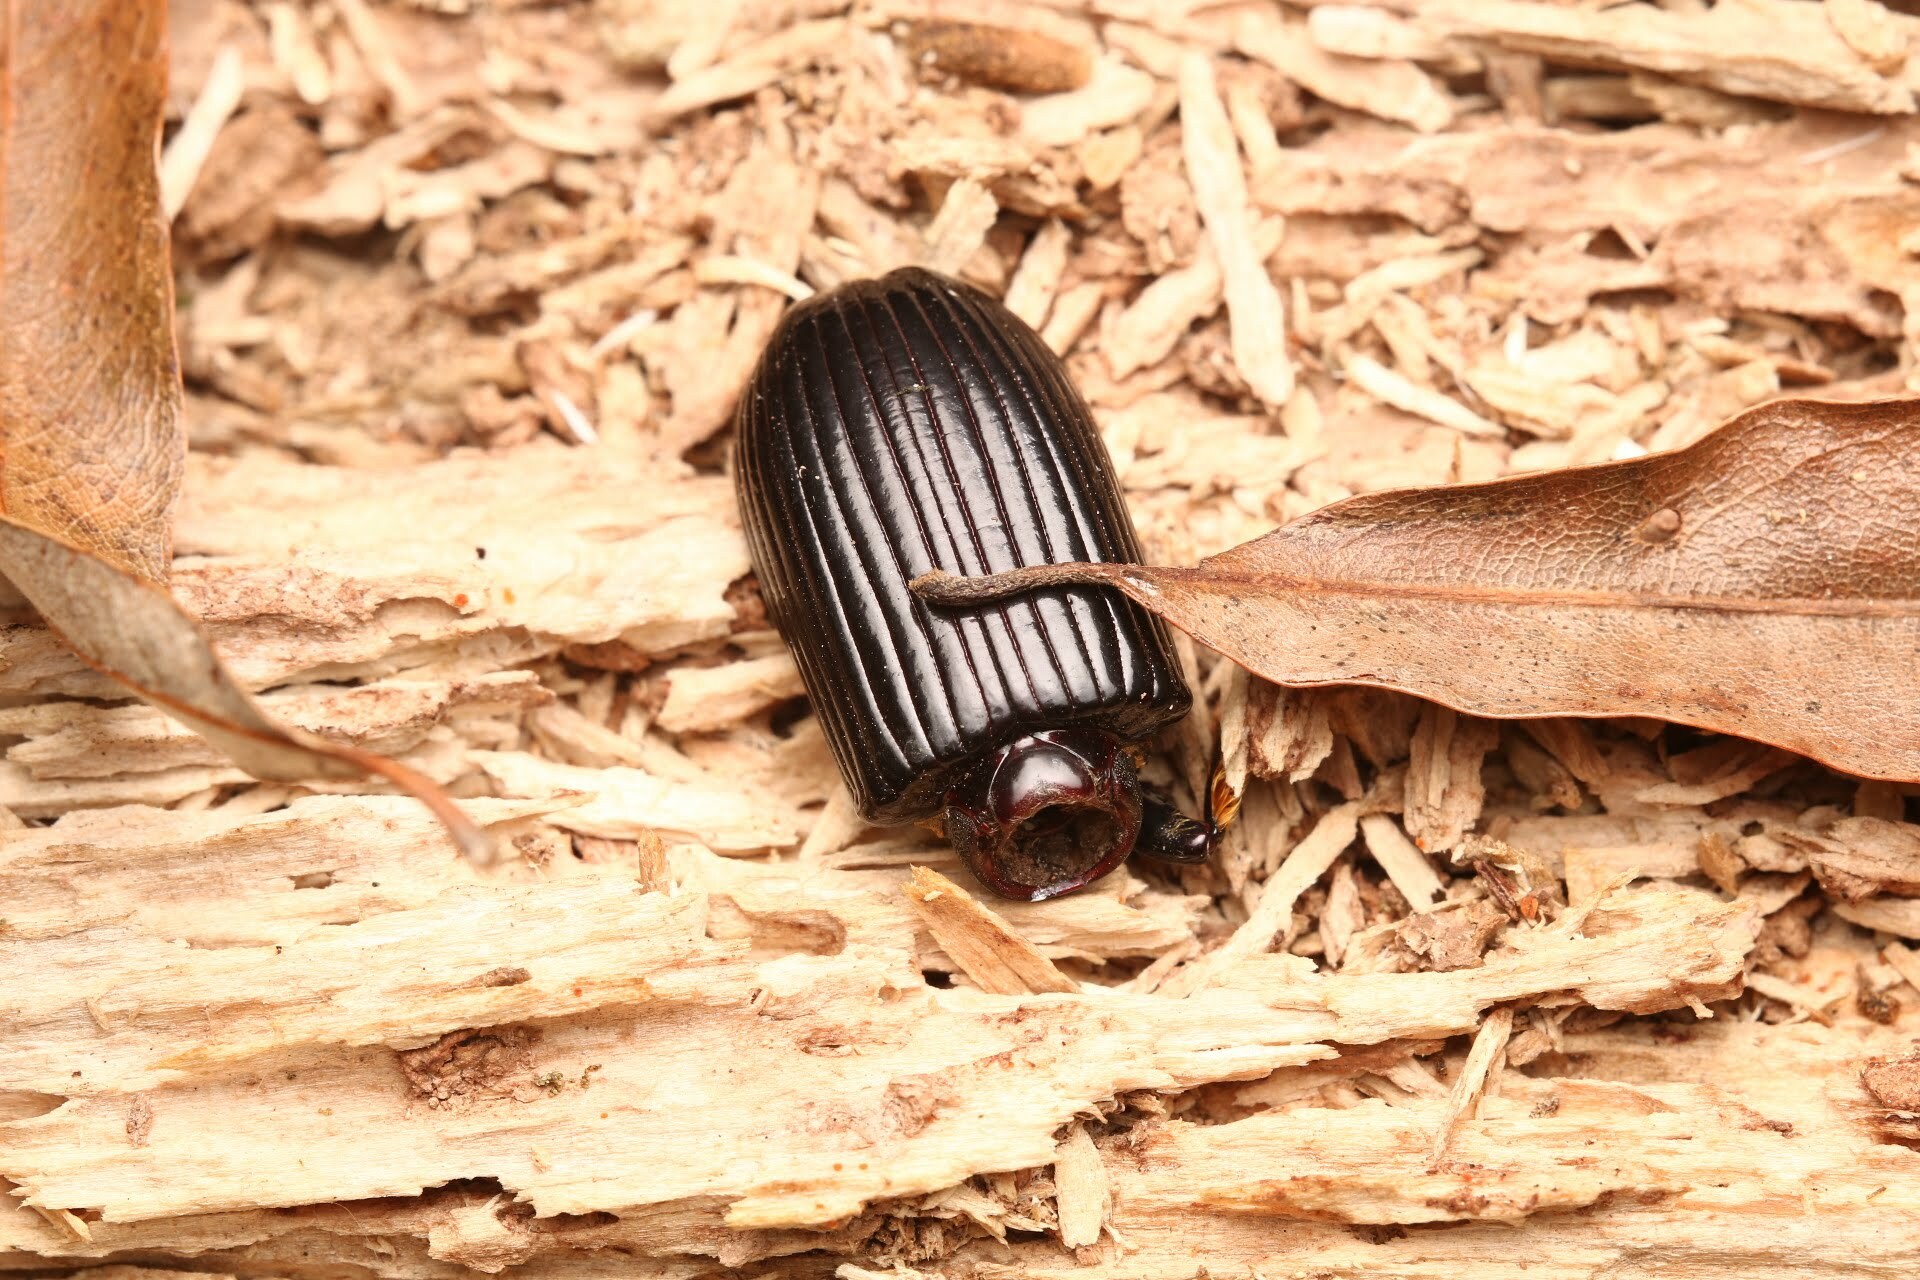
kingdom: Animalia
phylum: Arthropoda
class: Insecta
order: Coleoptera
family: Passalidae
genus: Odontotaenius
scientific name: Odontotaenius disjunctus
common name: Patent leather beetle
